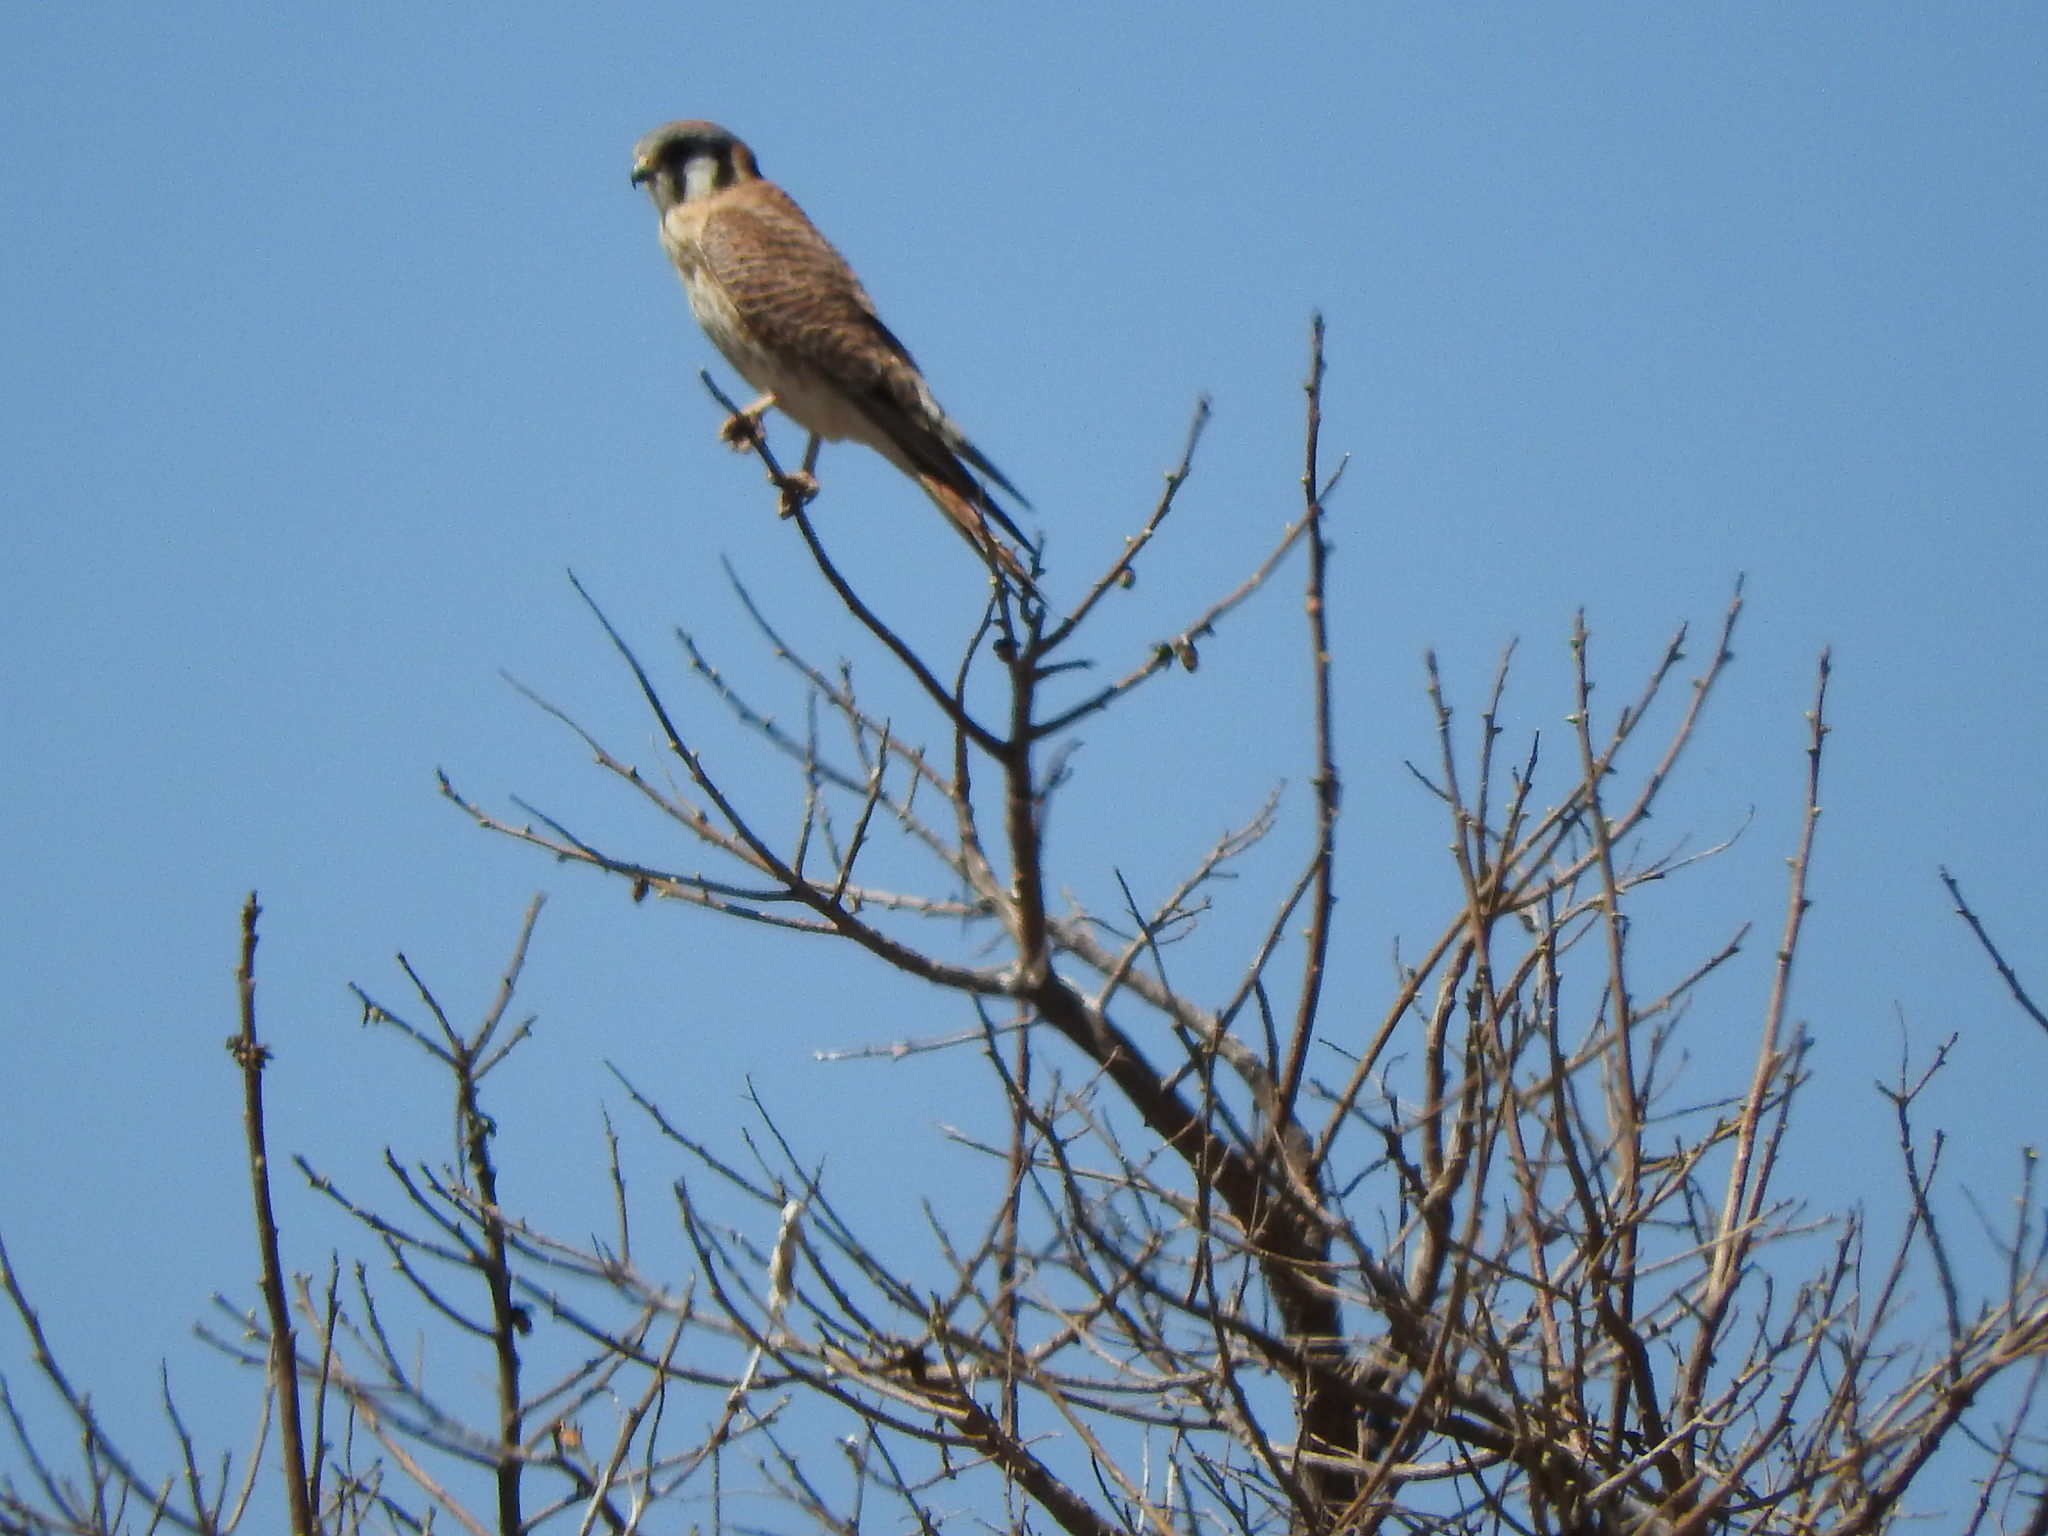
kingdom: Animalia
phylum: Chordata
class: Aves
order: Falconiformes
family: Falconidae
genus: Falco
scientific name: Falco sparverius
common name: American kestrel
